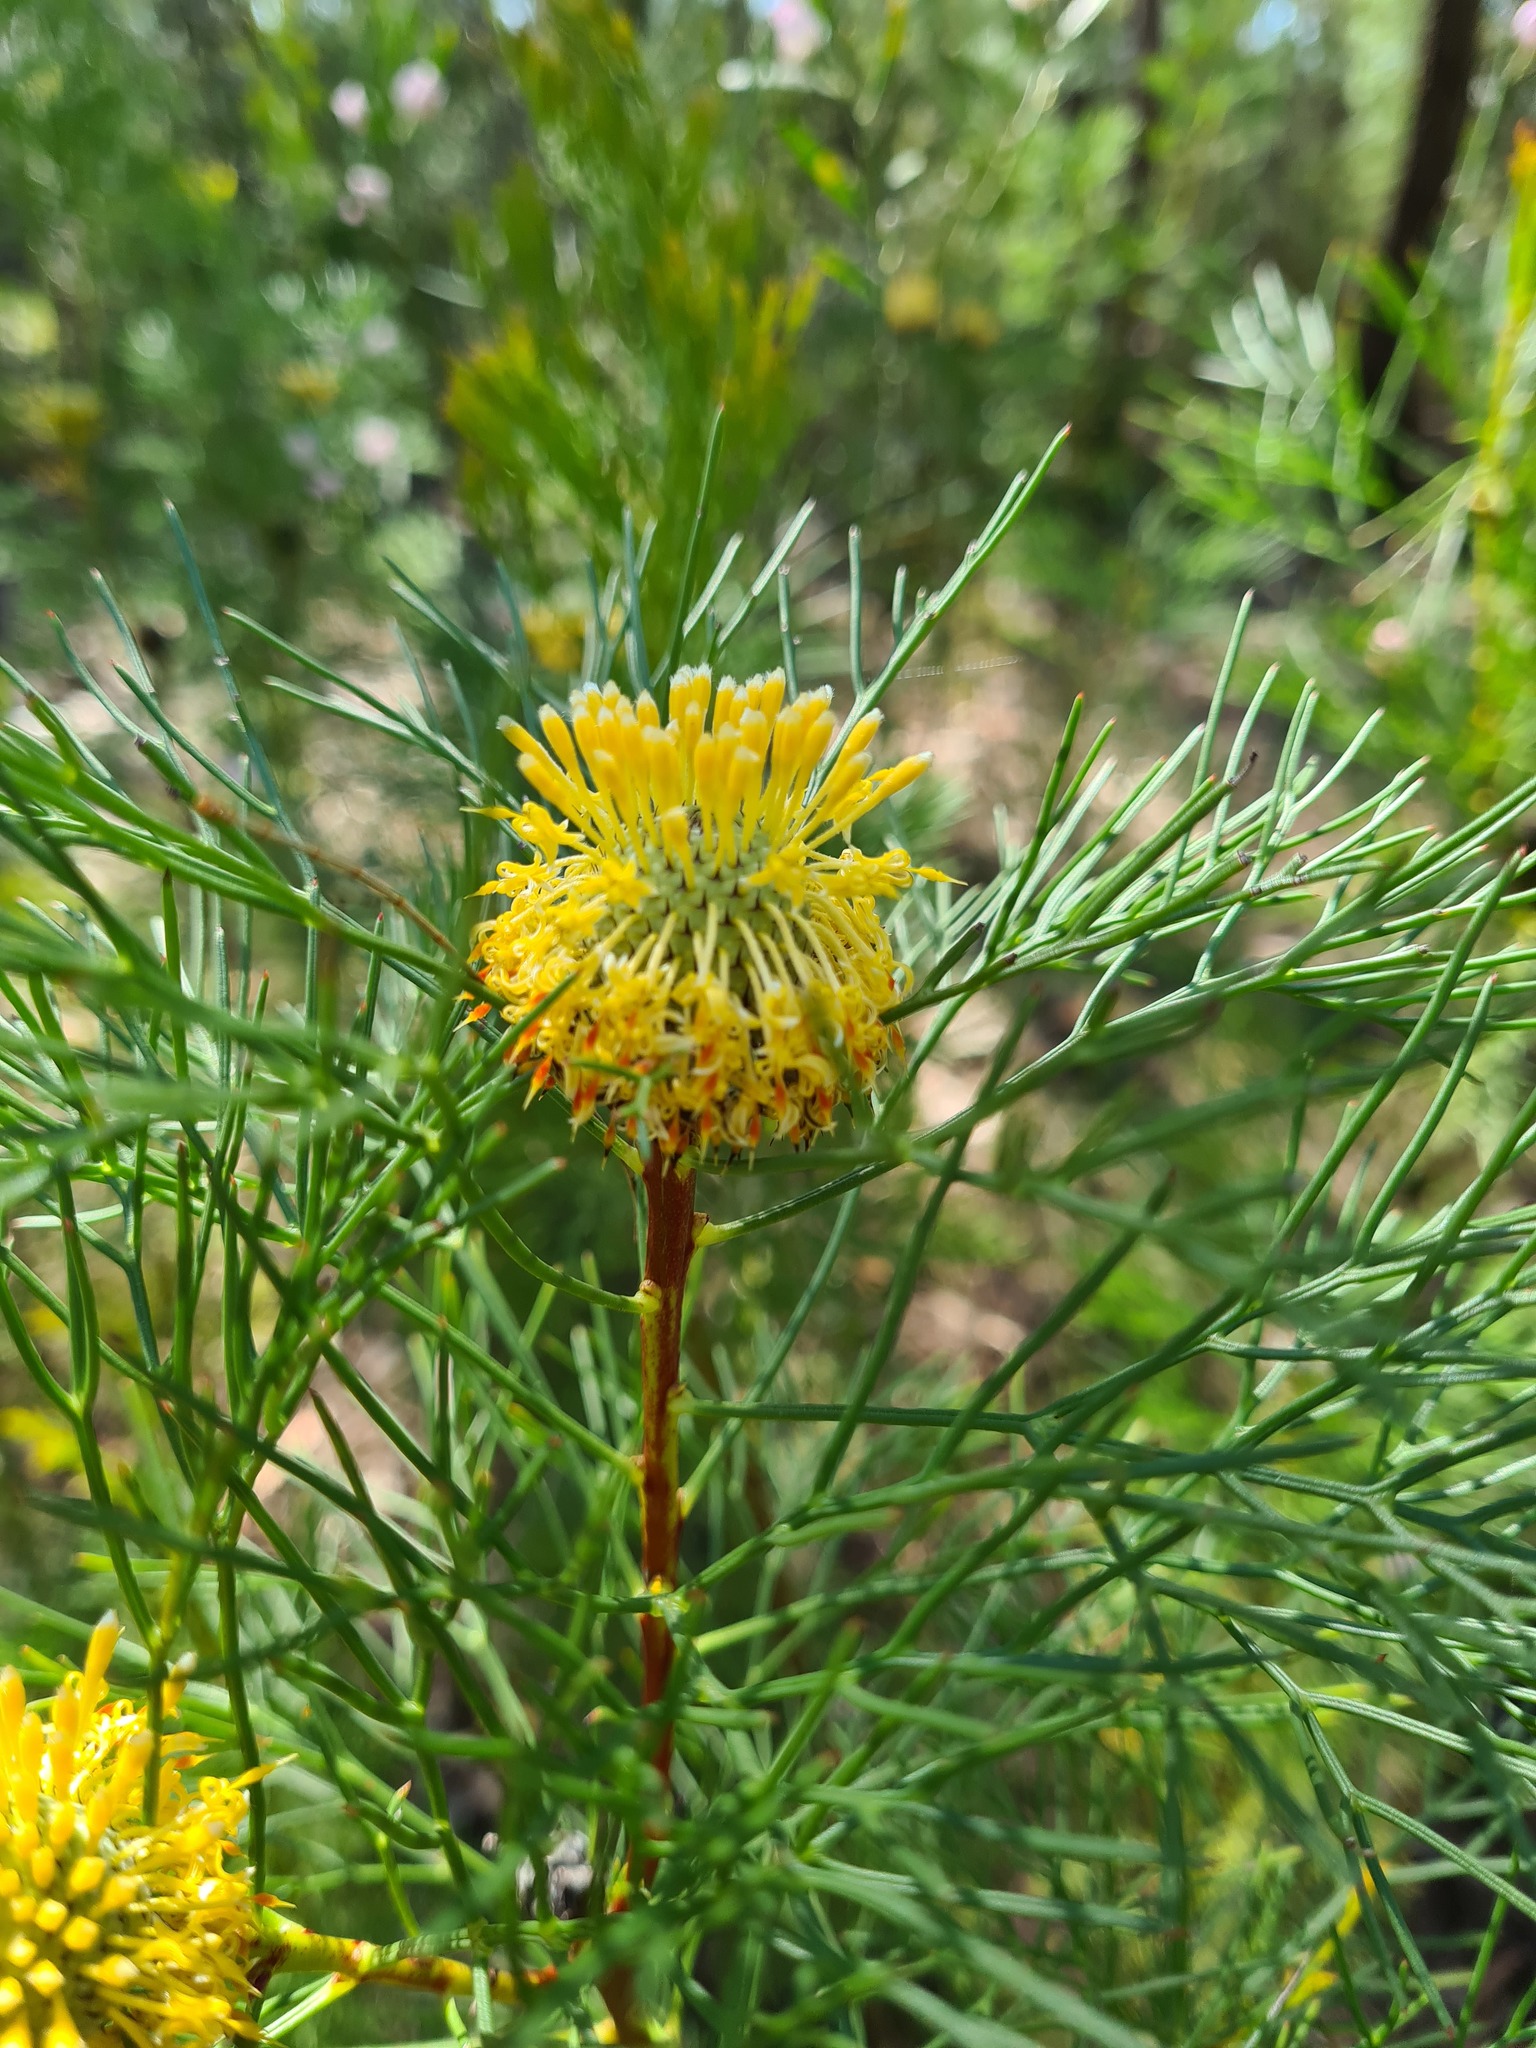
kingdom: Plantae
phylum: Tracheophyta
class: Magnoliopsida
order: Proteales
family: Proteaceae
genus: Isopogon
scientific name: Isopogon anethifolius
